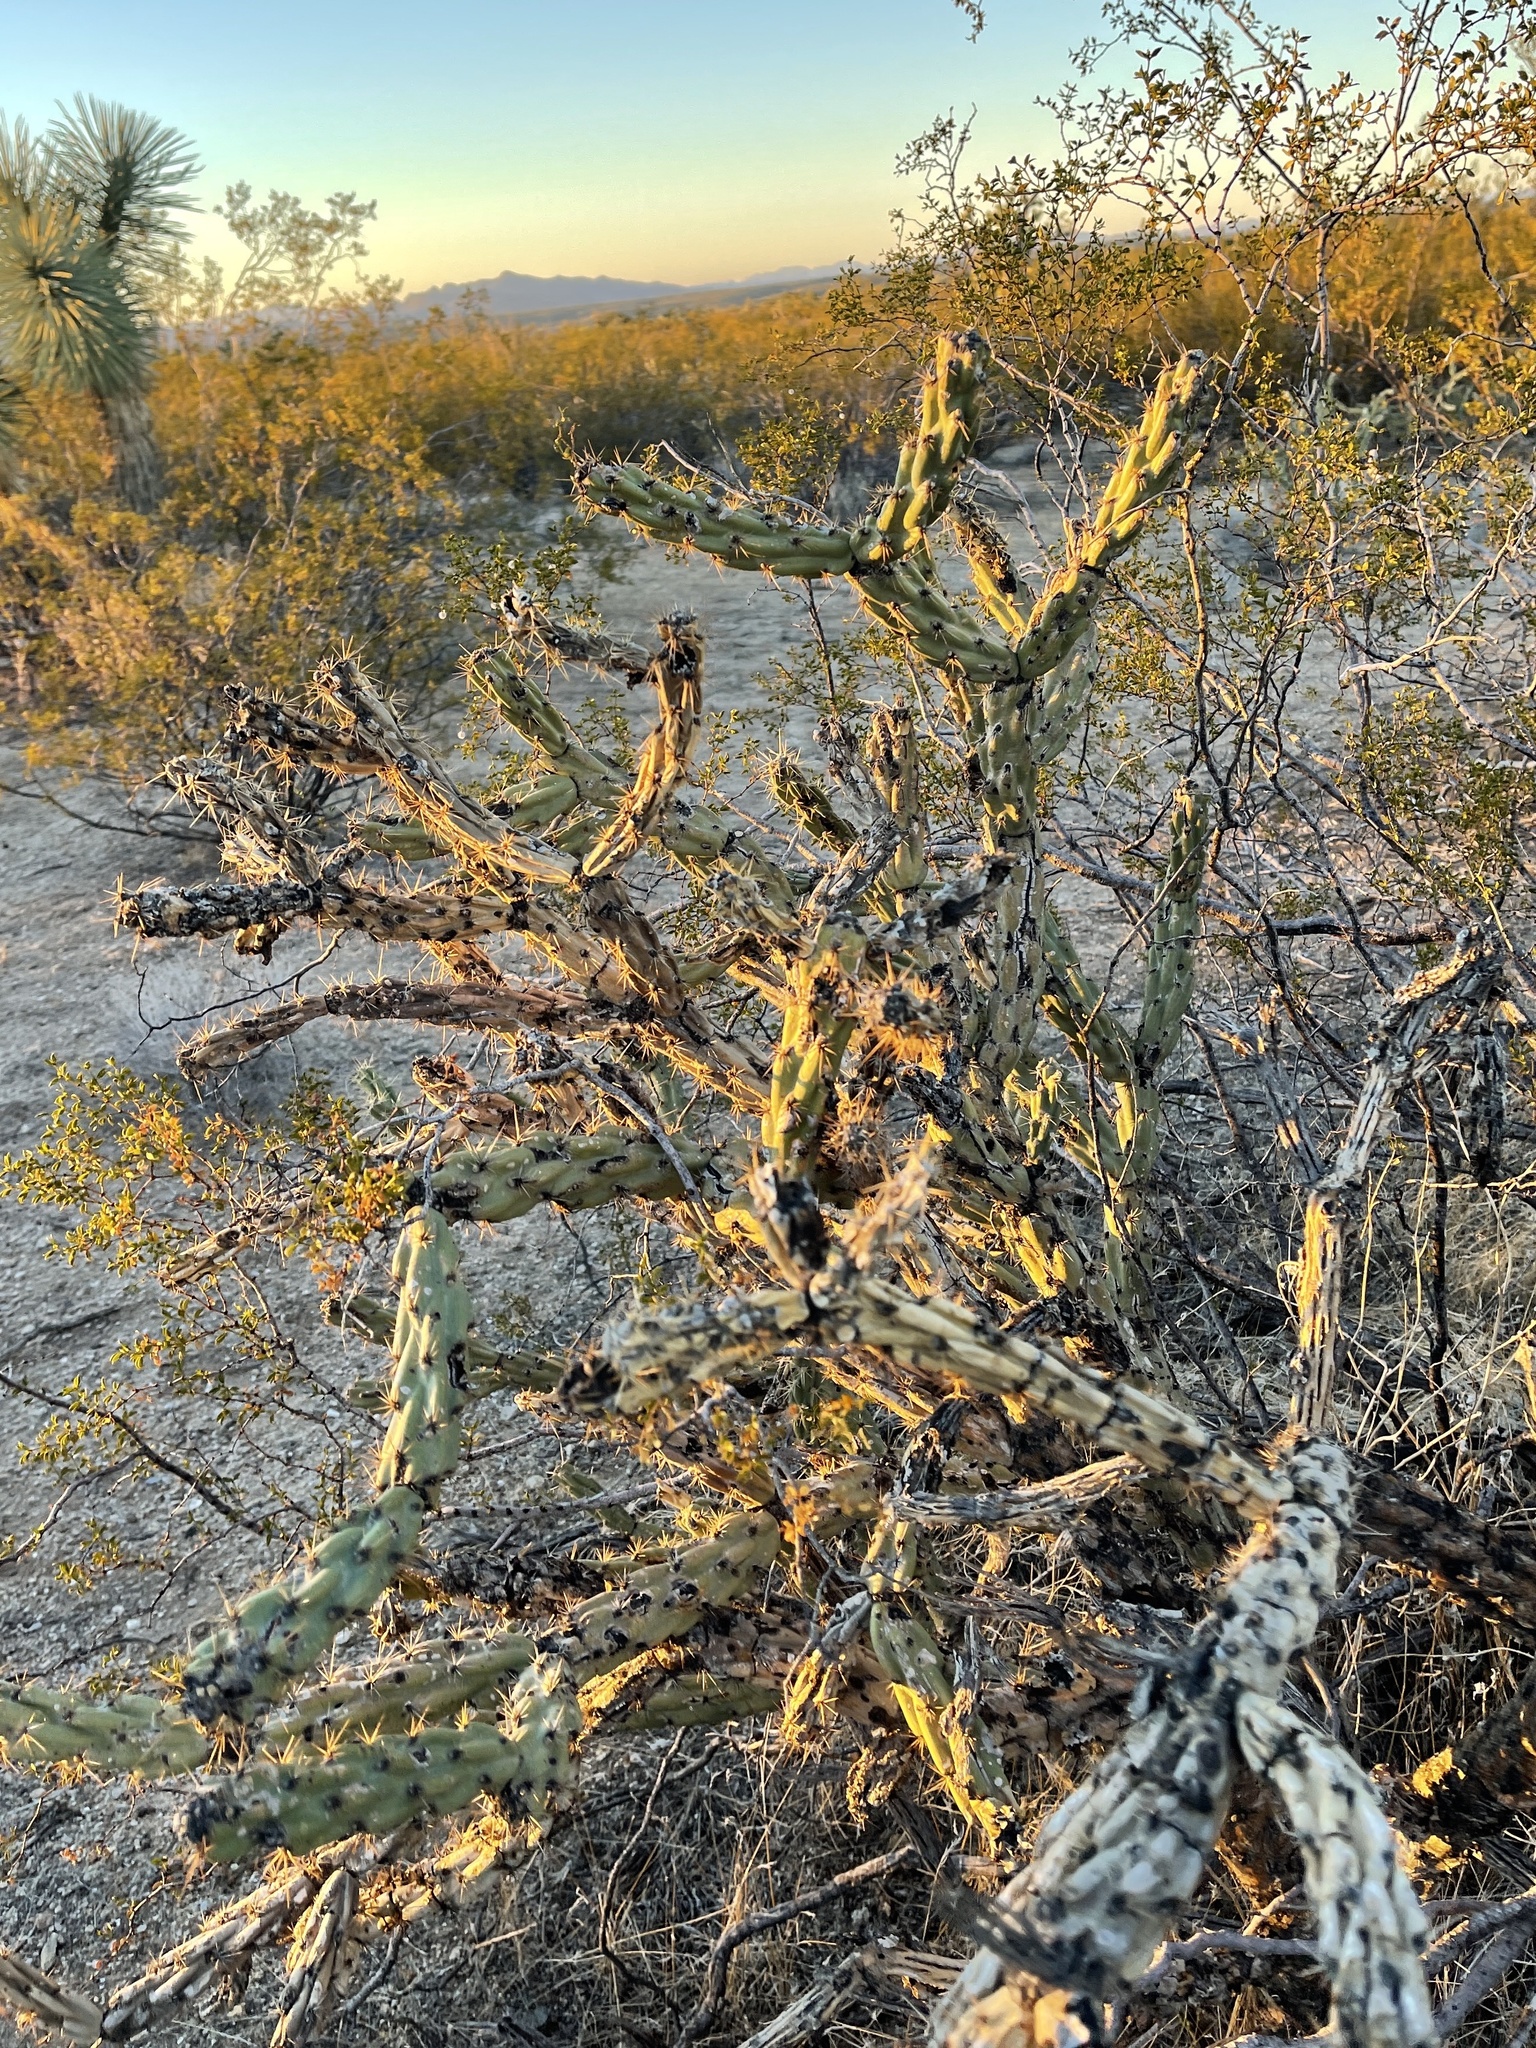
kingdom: Plantae
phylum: Tracheophyta
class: Magnoliopsida
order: Caryophyllales
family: Cactaceae
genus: Cylindropuntia
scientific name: Cylindropuntia acanthocarpa
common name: Buckhorn cholla
